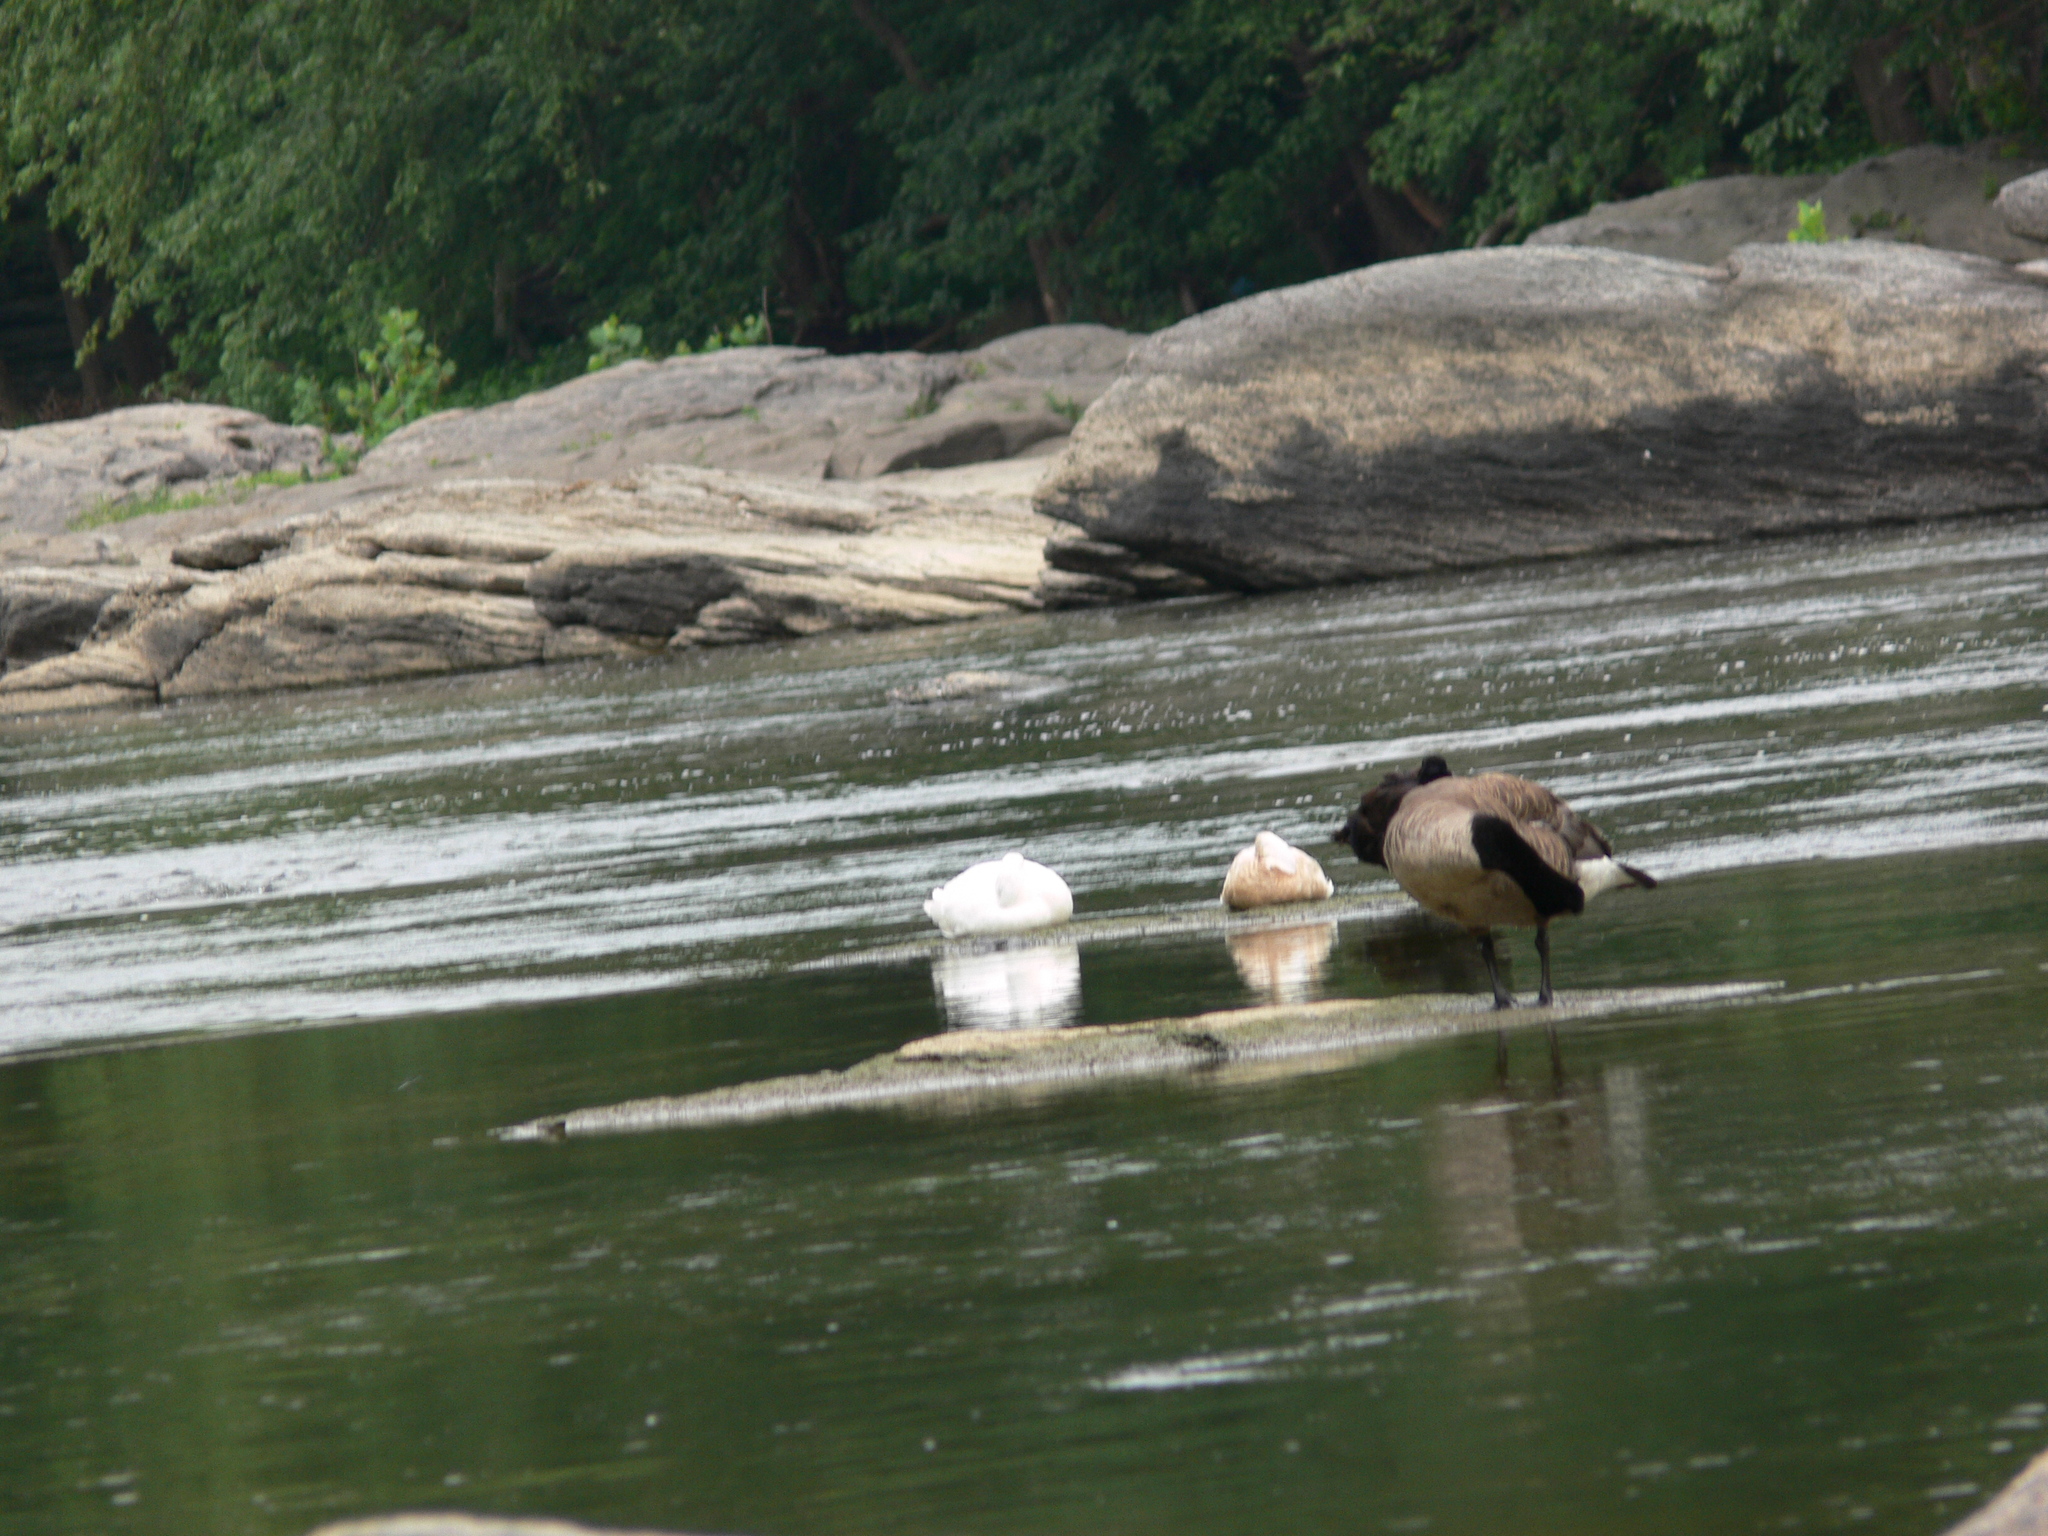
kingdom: Animalia
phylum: Chordata
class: Aves
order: Anseriformes
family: Anatidae
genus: Branta
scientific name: Branta canadensis
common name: Canada goose
